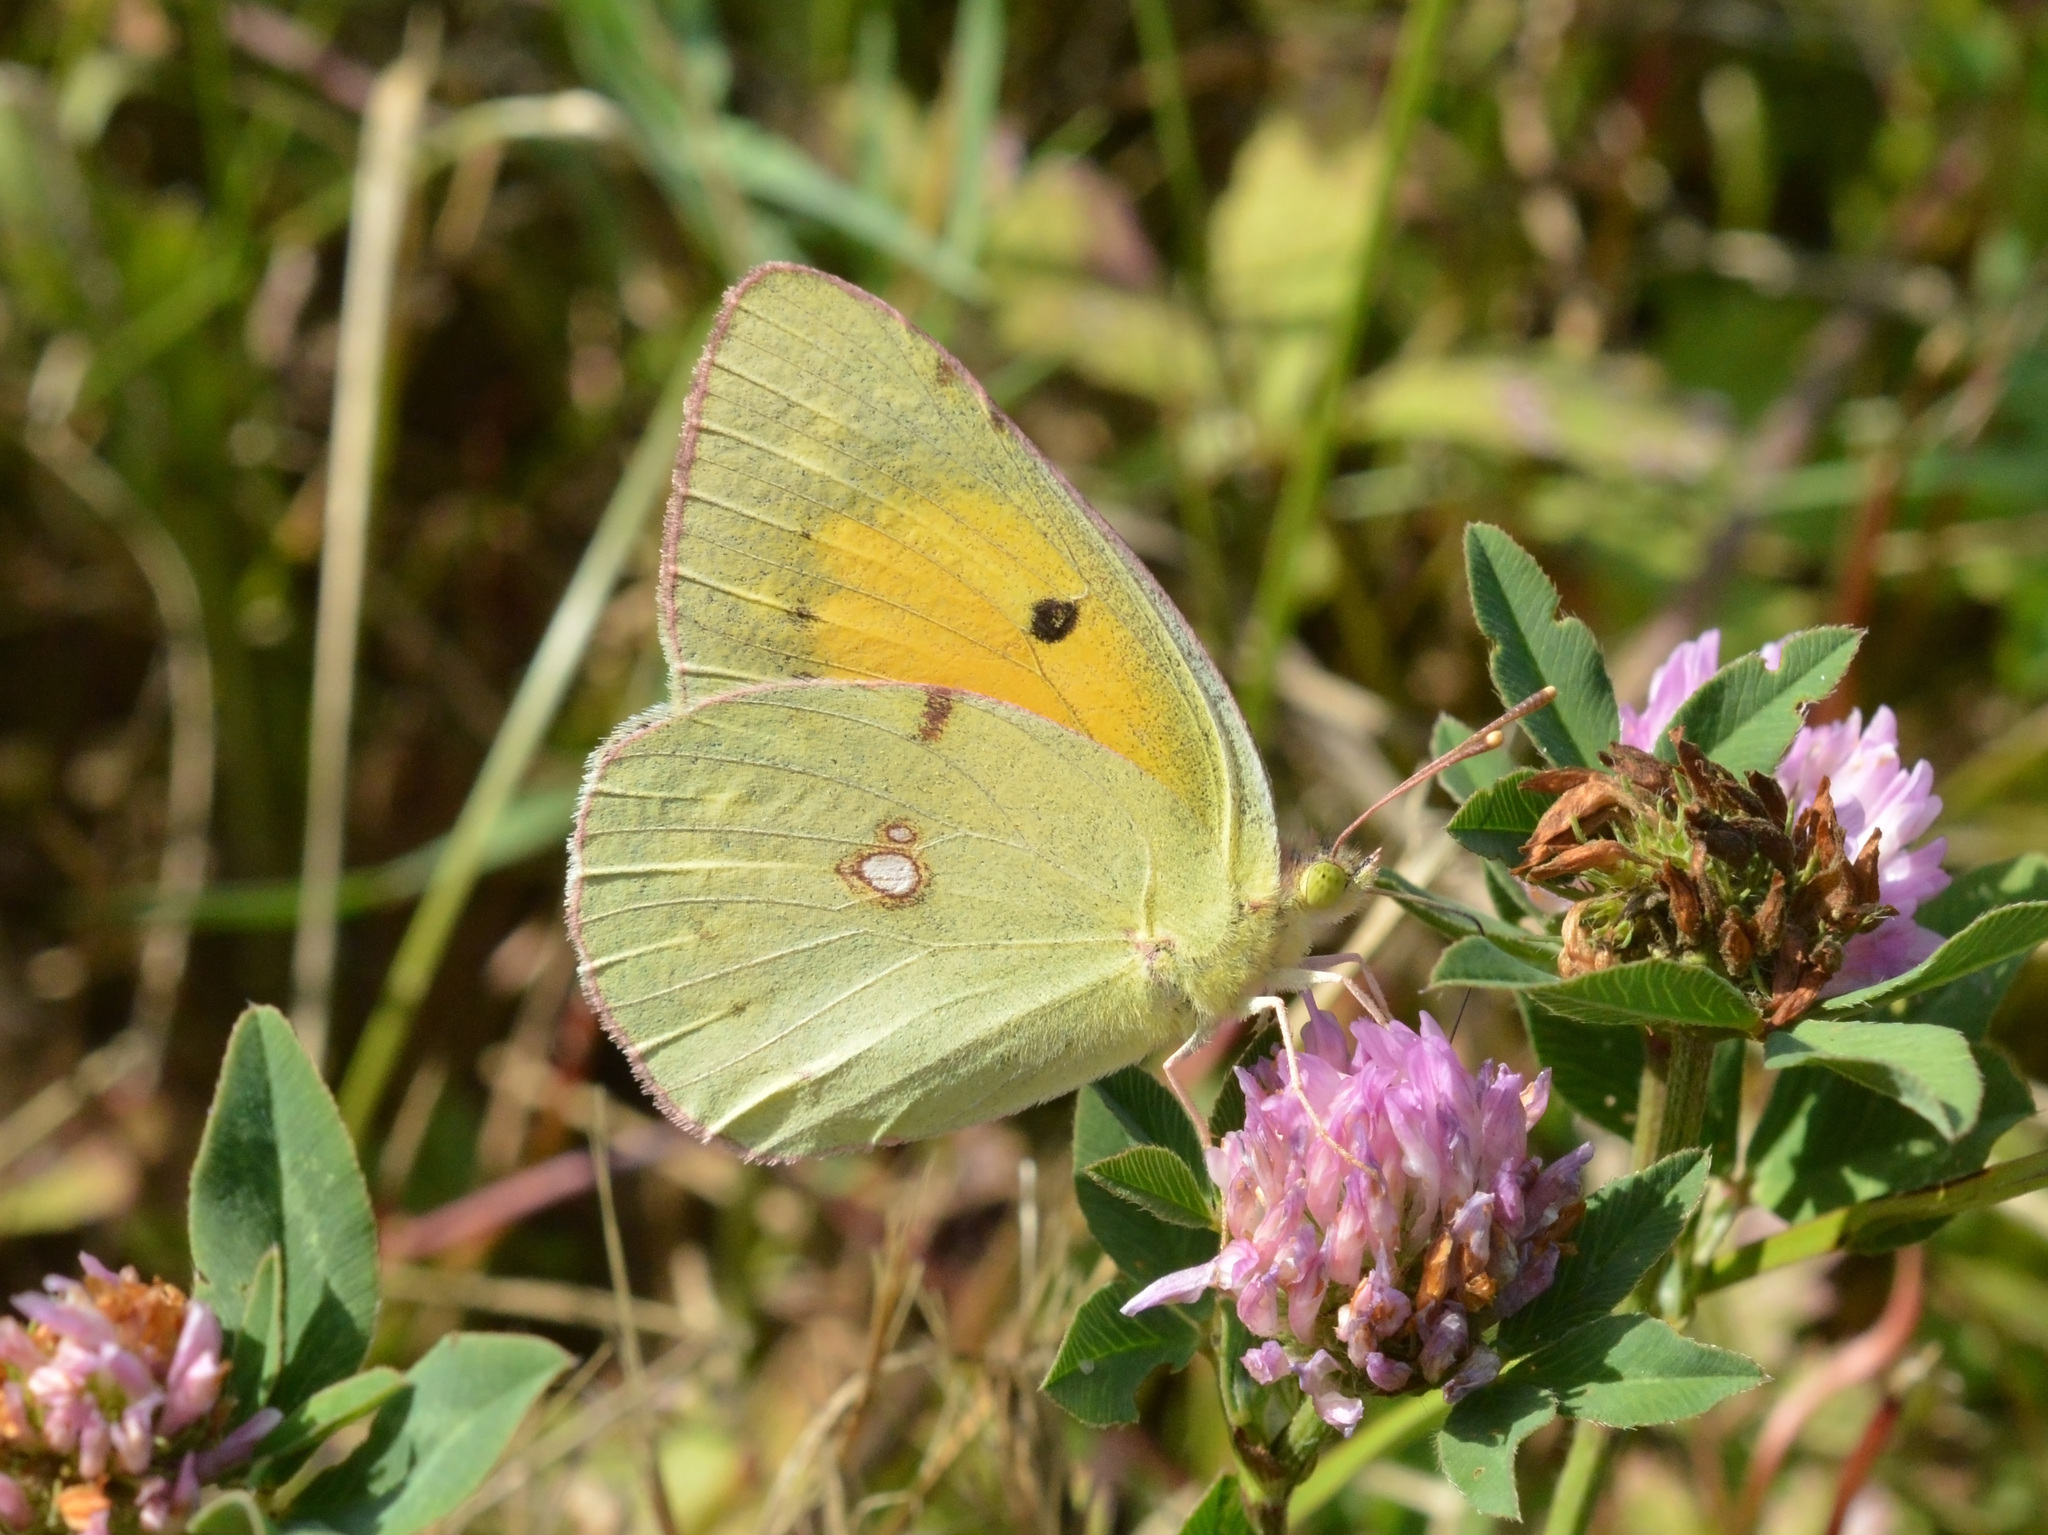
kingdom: Animalia
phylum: Arthropoda
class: Insecta
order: Lepidoptera
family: Pieridae
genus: Colias
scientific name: Colias croceus
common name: Clouded yellow
